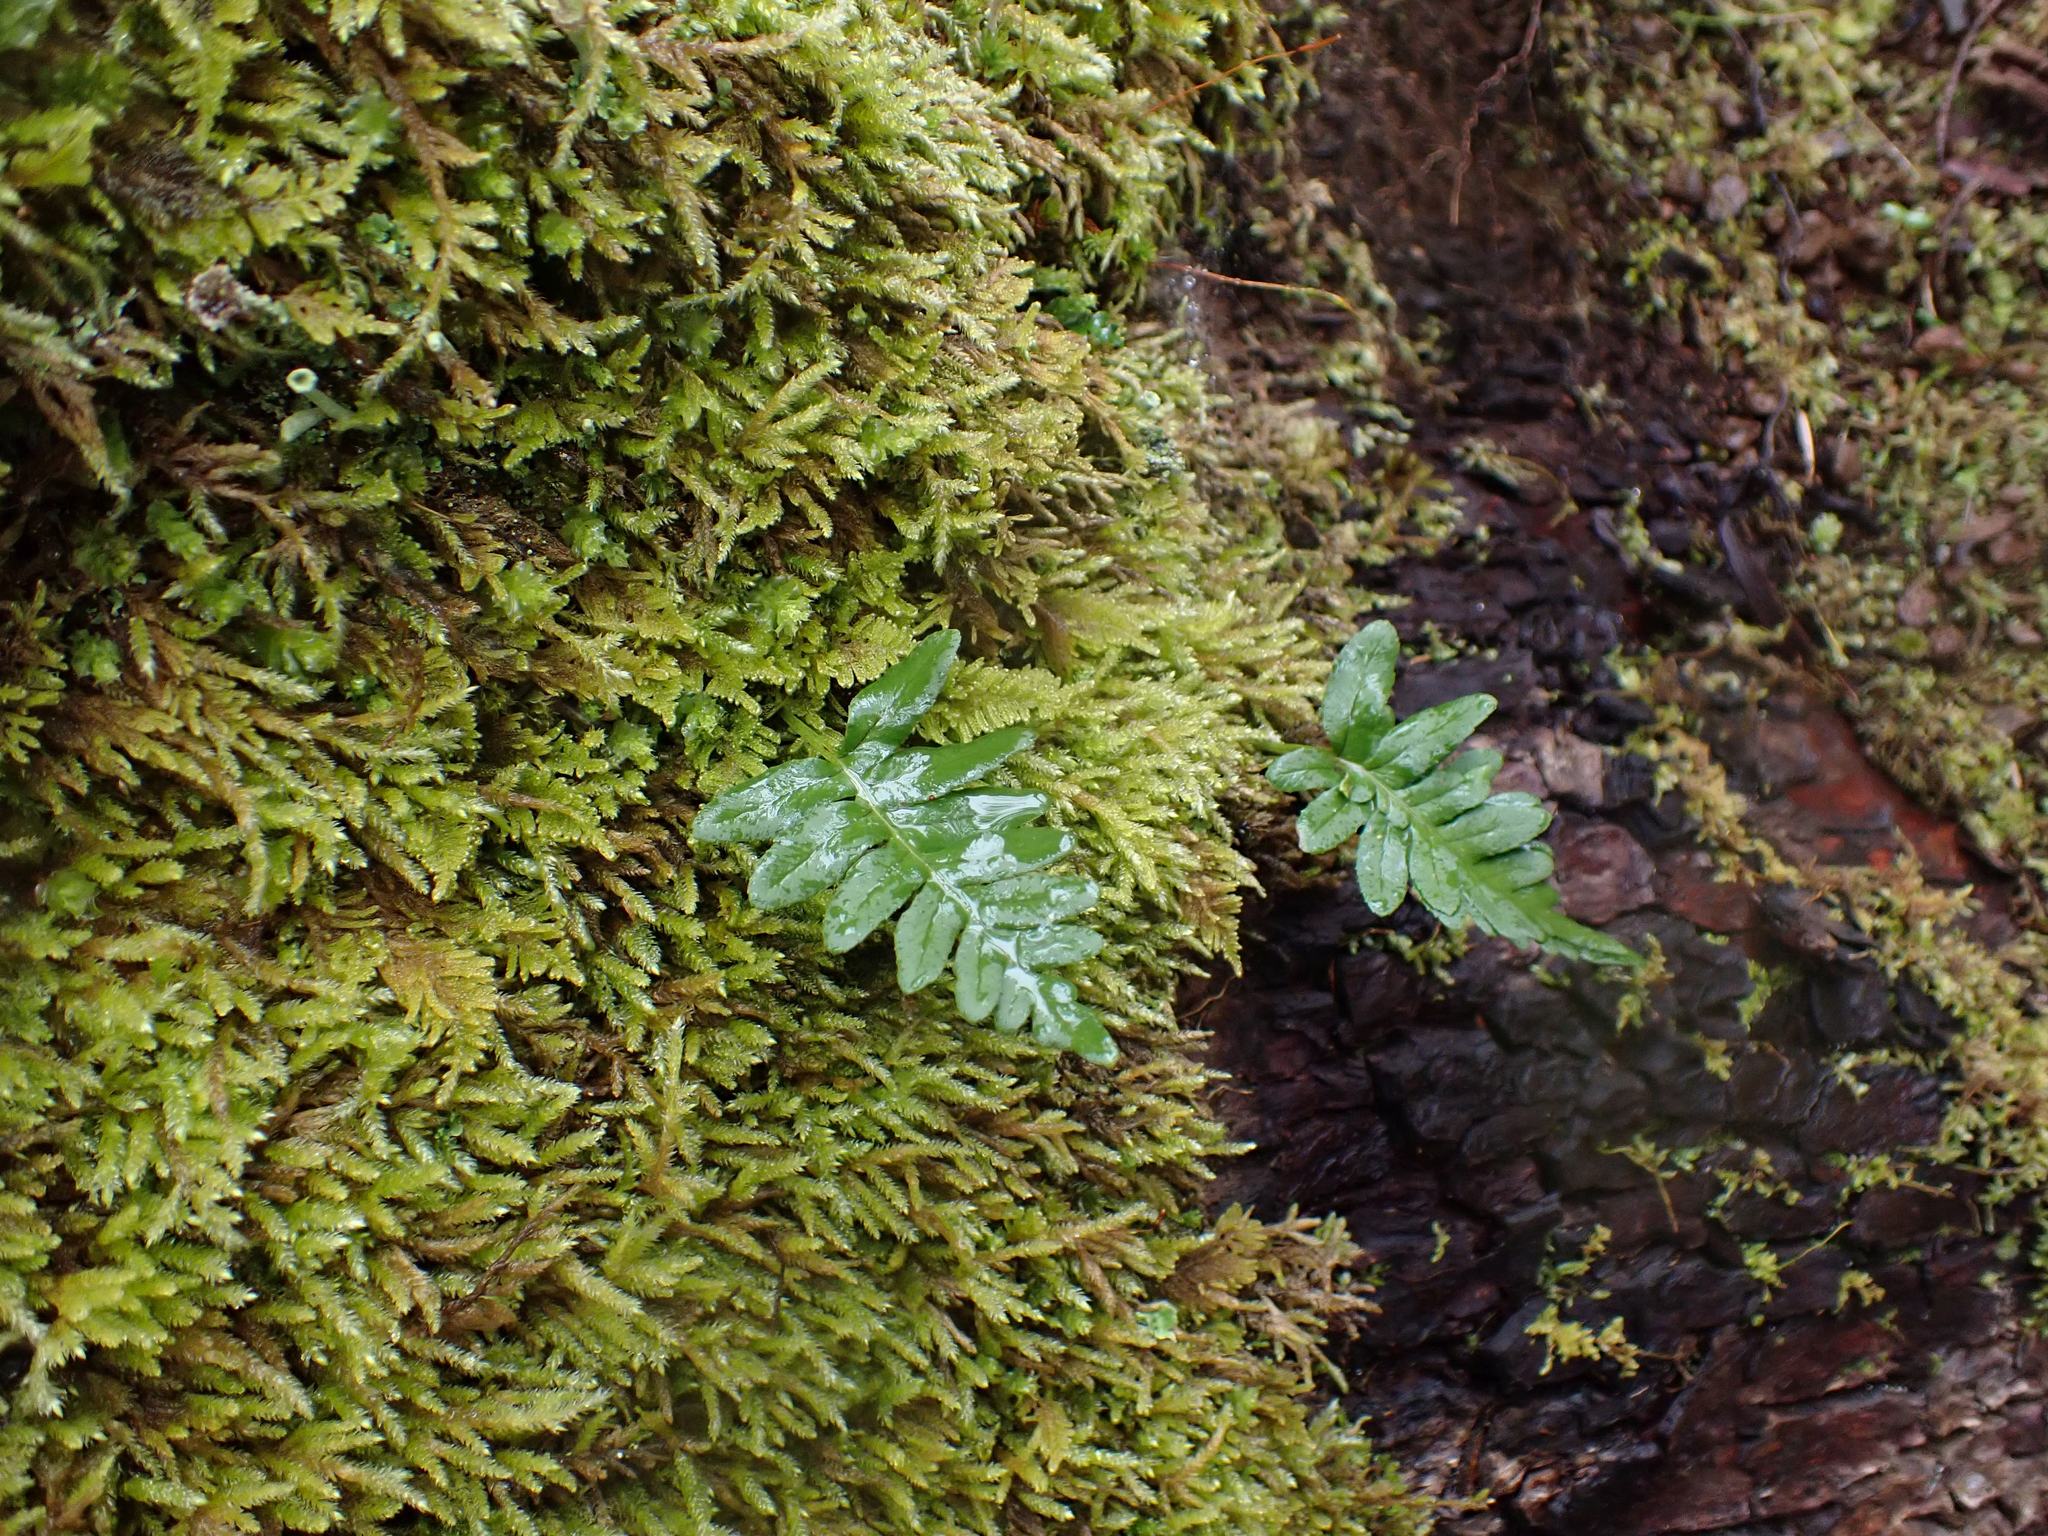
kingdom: Plantae
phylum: Tracheophyta
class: Polypodiopsida
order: Polypodiales
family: Polypodiaceae
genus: Polypodium
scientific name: Polypodium glycyrrhiza
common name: Licorice fern
